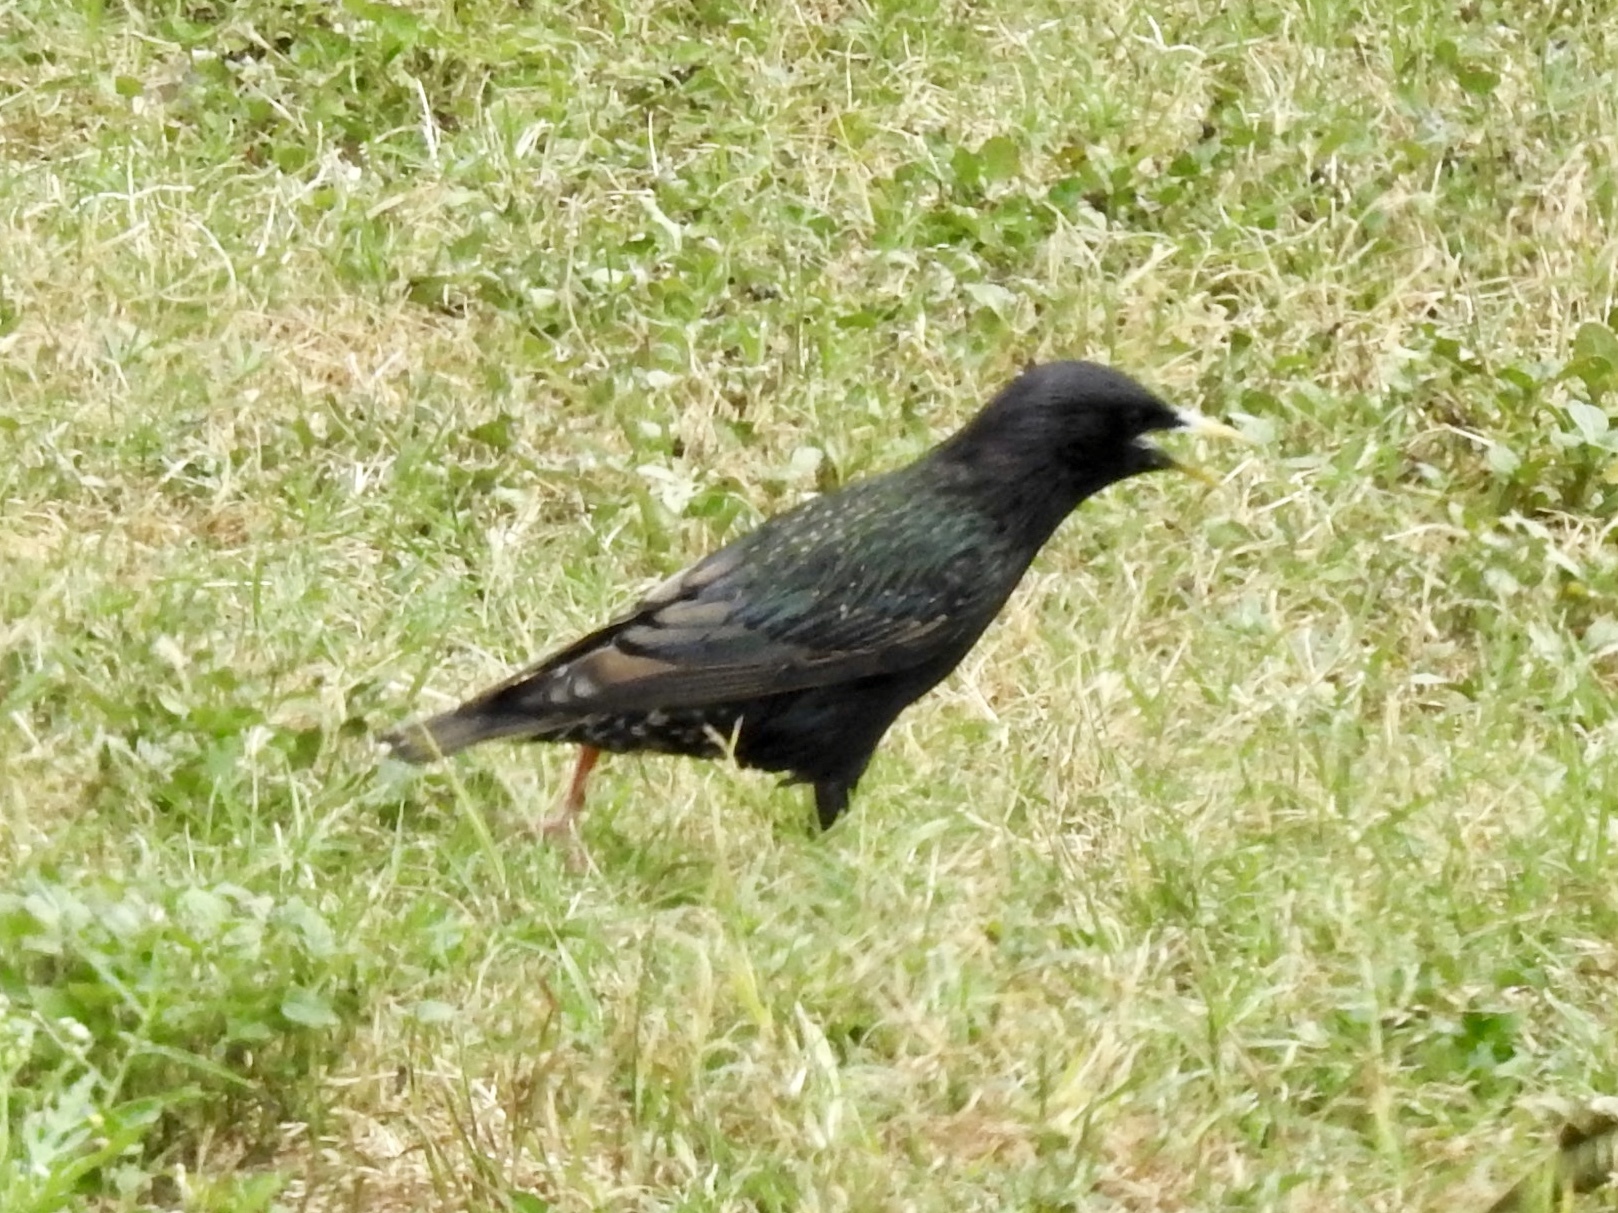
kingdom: Animalia
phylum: Chordata
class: Aves
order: Passeriformes
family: Sturnidae
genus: Sturnus
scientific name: Sturnus vulgaris
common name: Common starling
